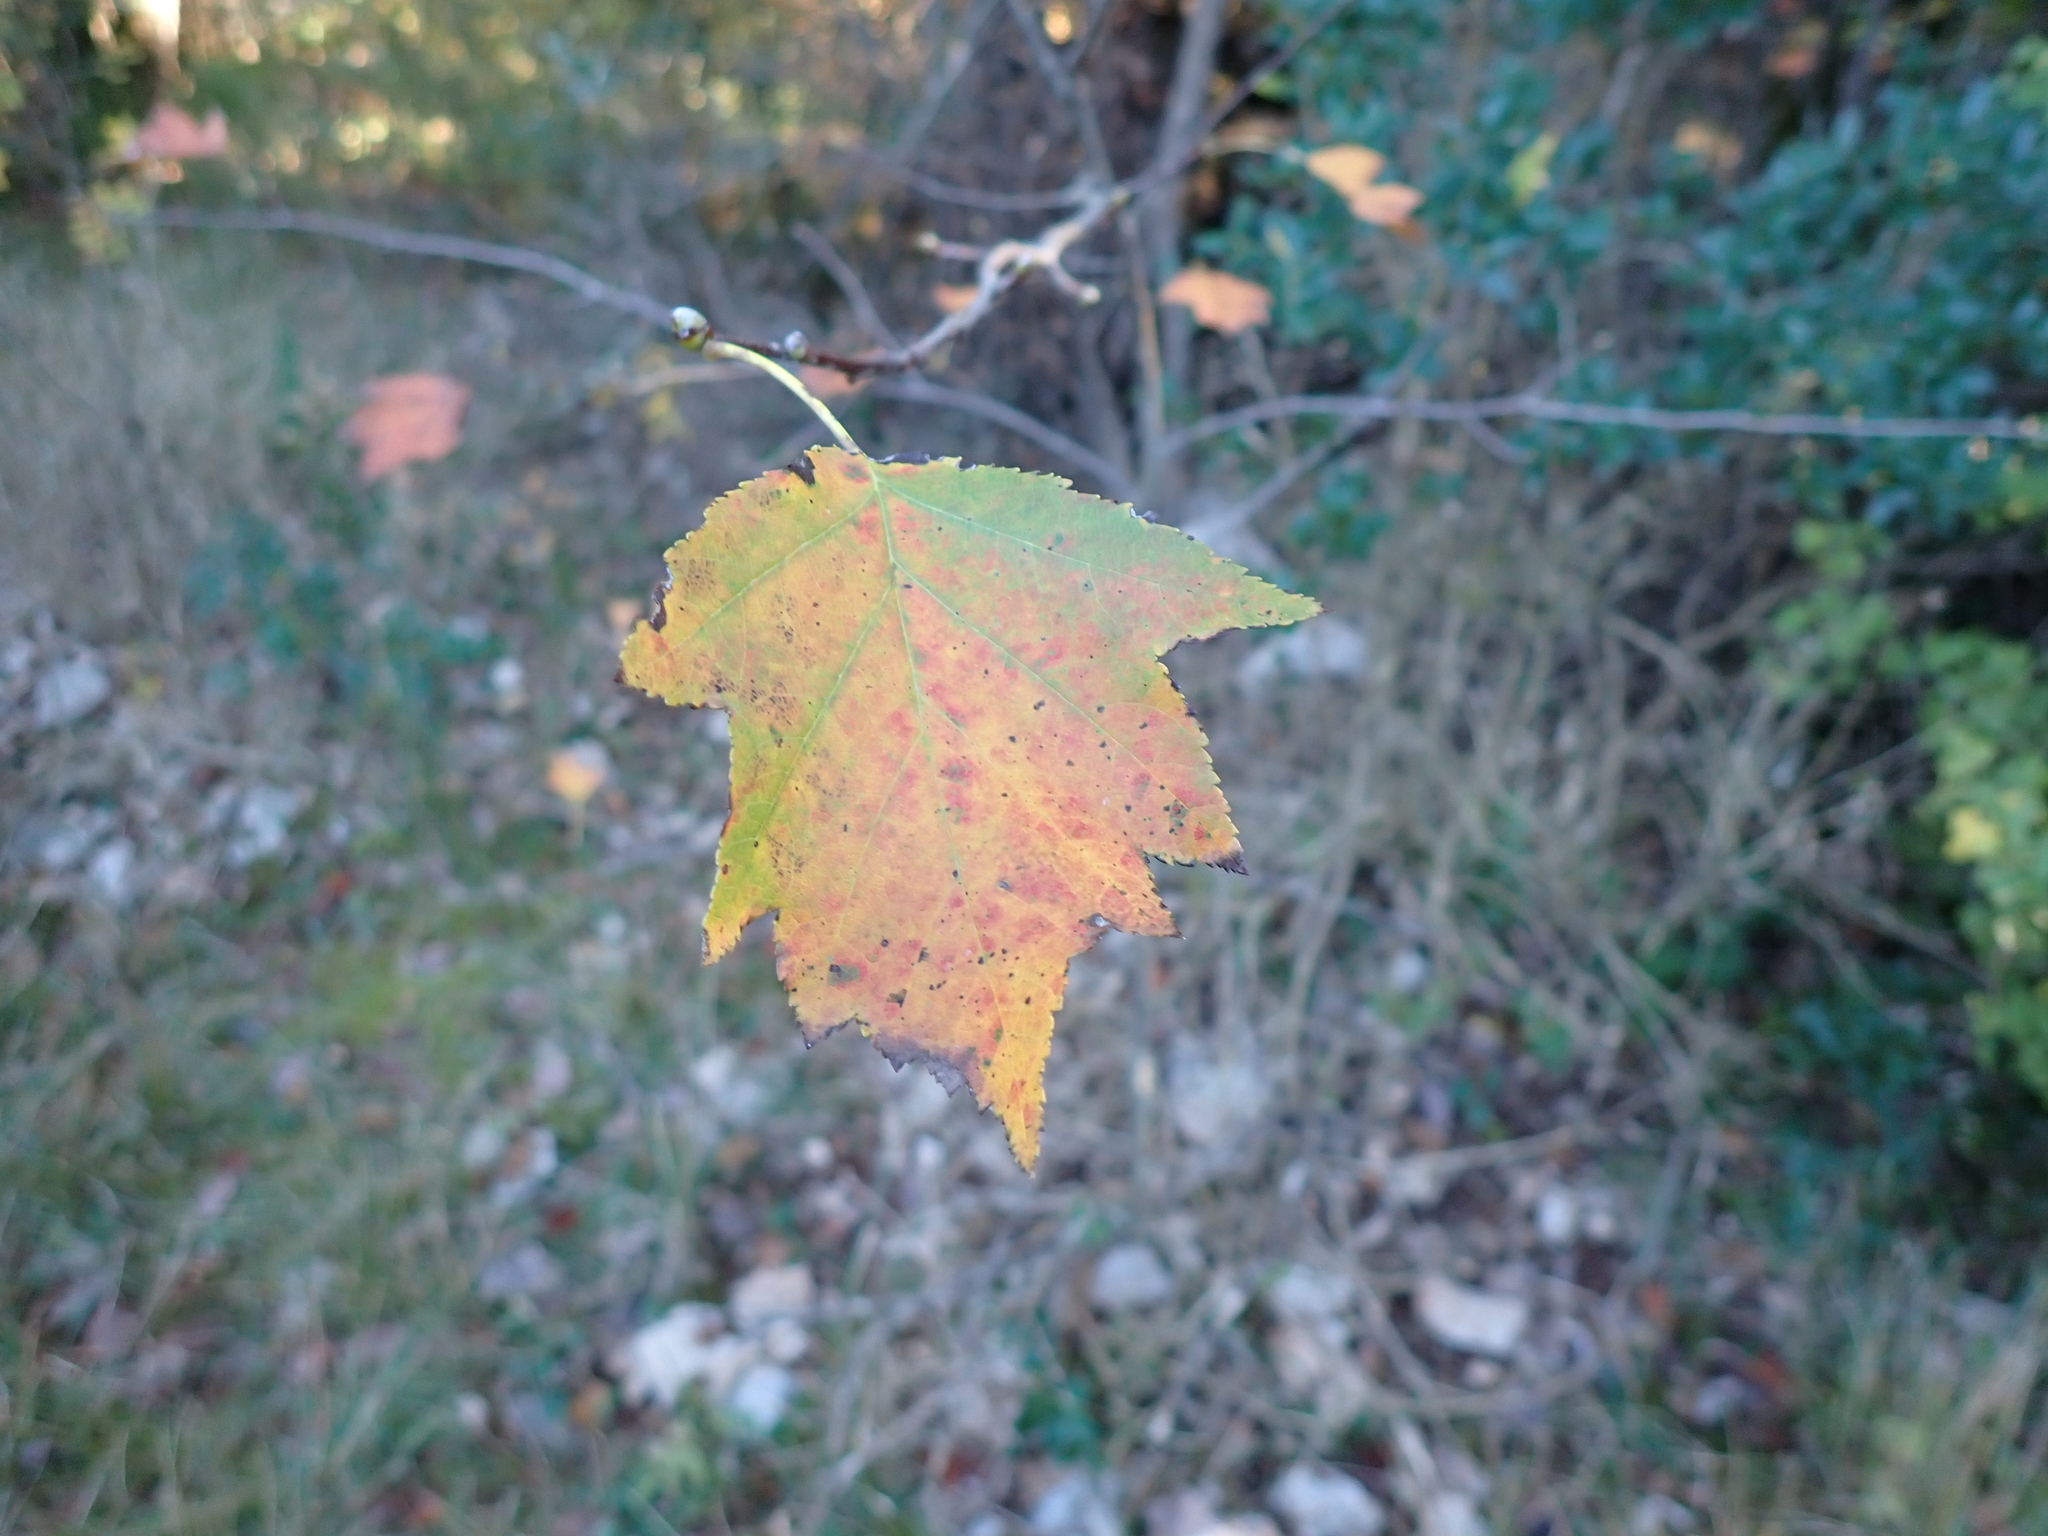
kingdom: Plantae
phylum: Tracheophyta
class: Magnoliopsida
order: Rosales
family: Rosaceae
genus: Torminalis
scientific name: Torminalis glaberrima
